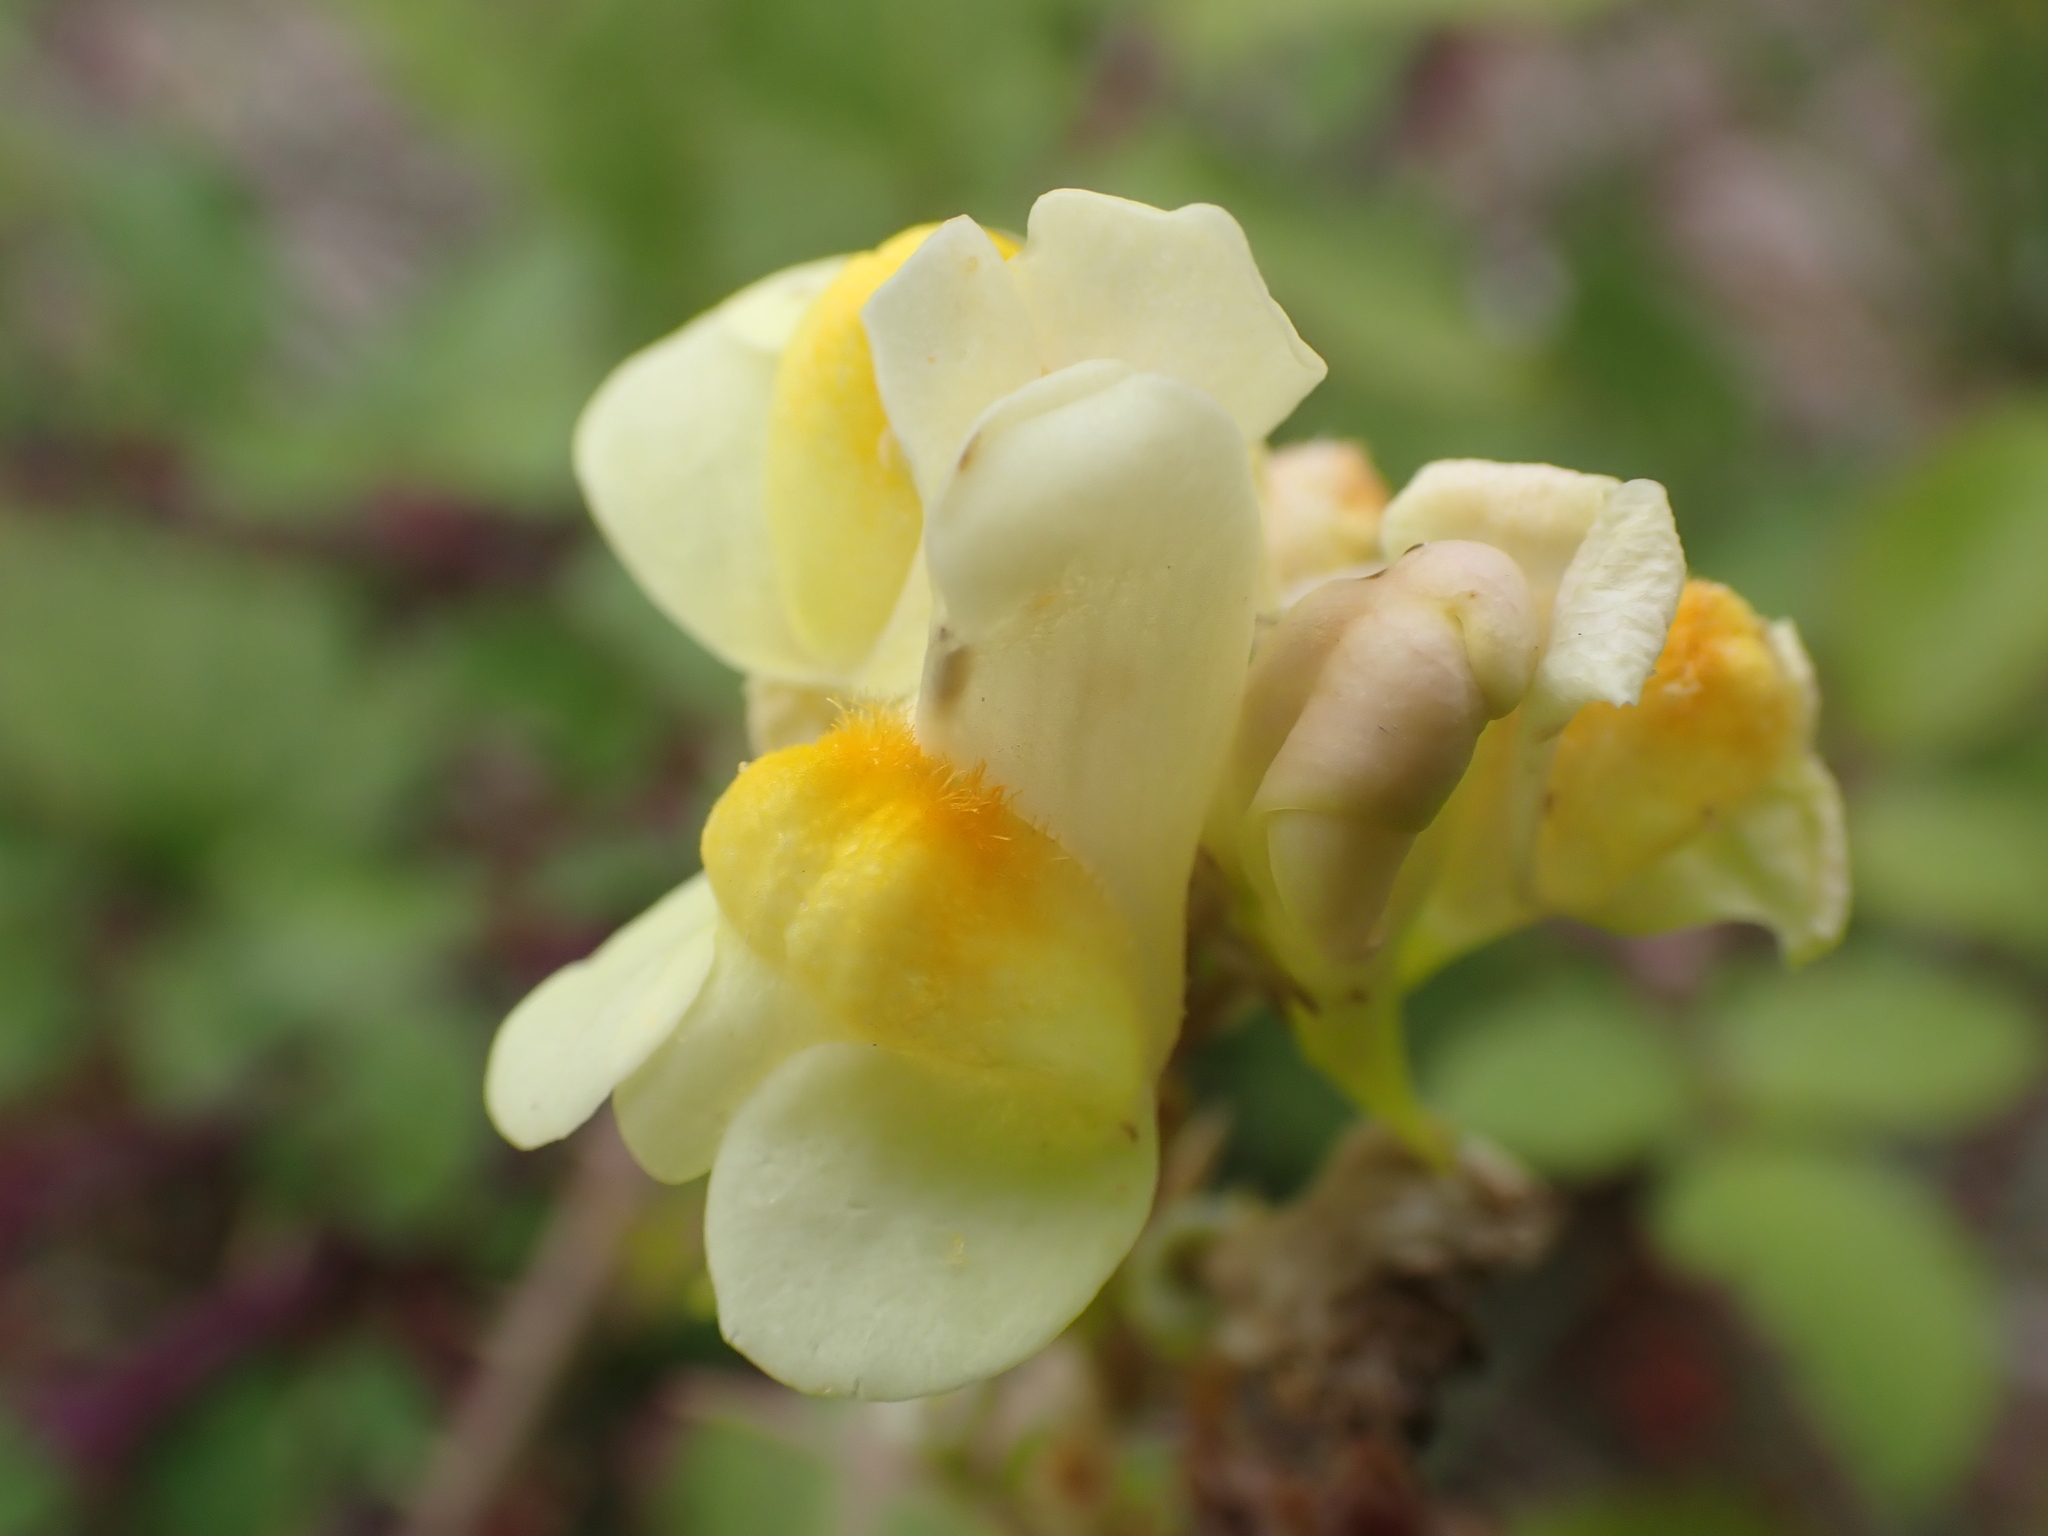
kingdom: Plantae
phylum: Tracheophyta
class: Magnoliopsida
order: Lamiales
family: Plantaginaceae
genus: Linaria
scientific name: Linaria vulgaris
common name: Butter and eggs
